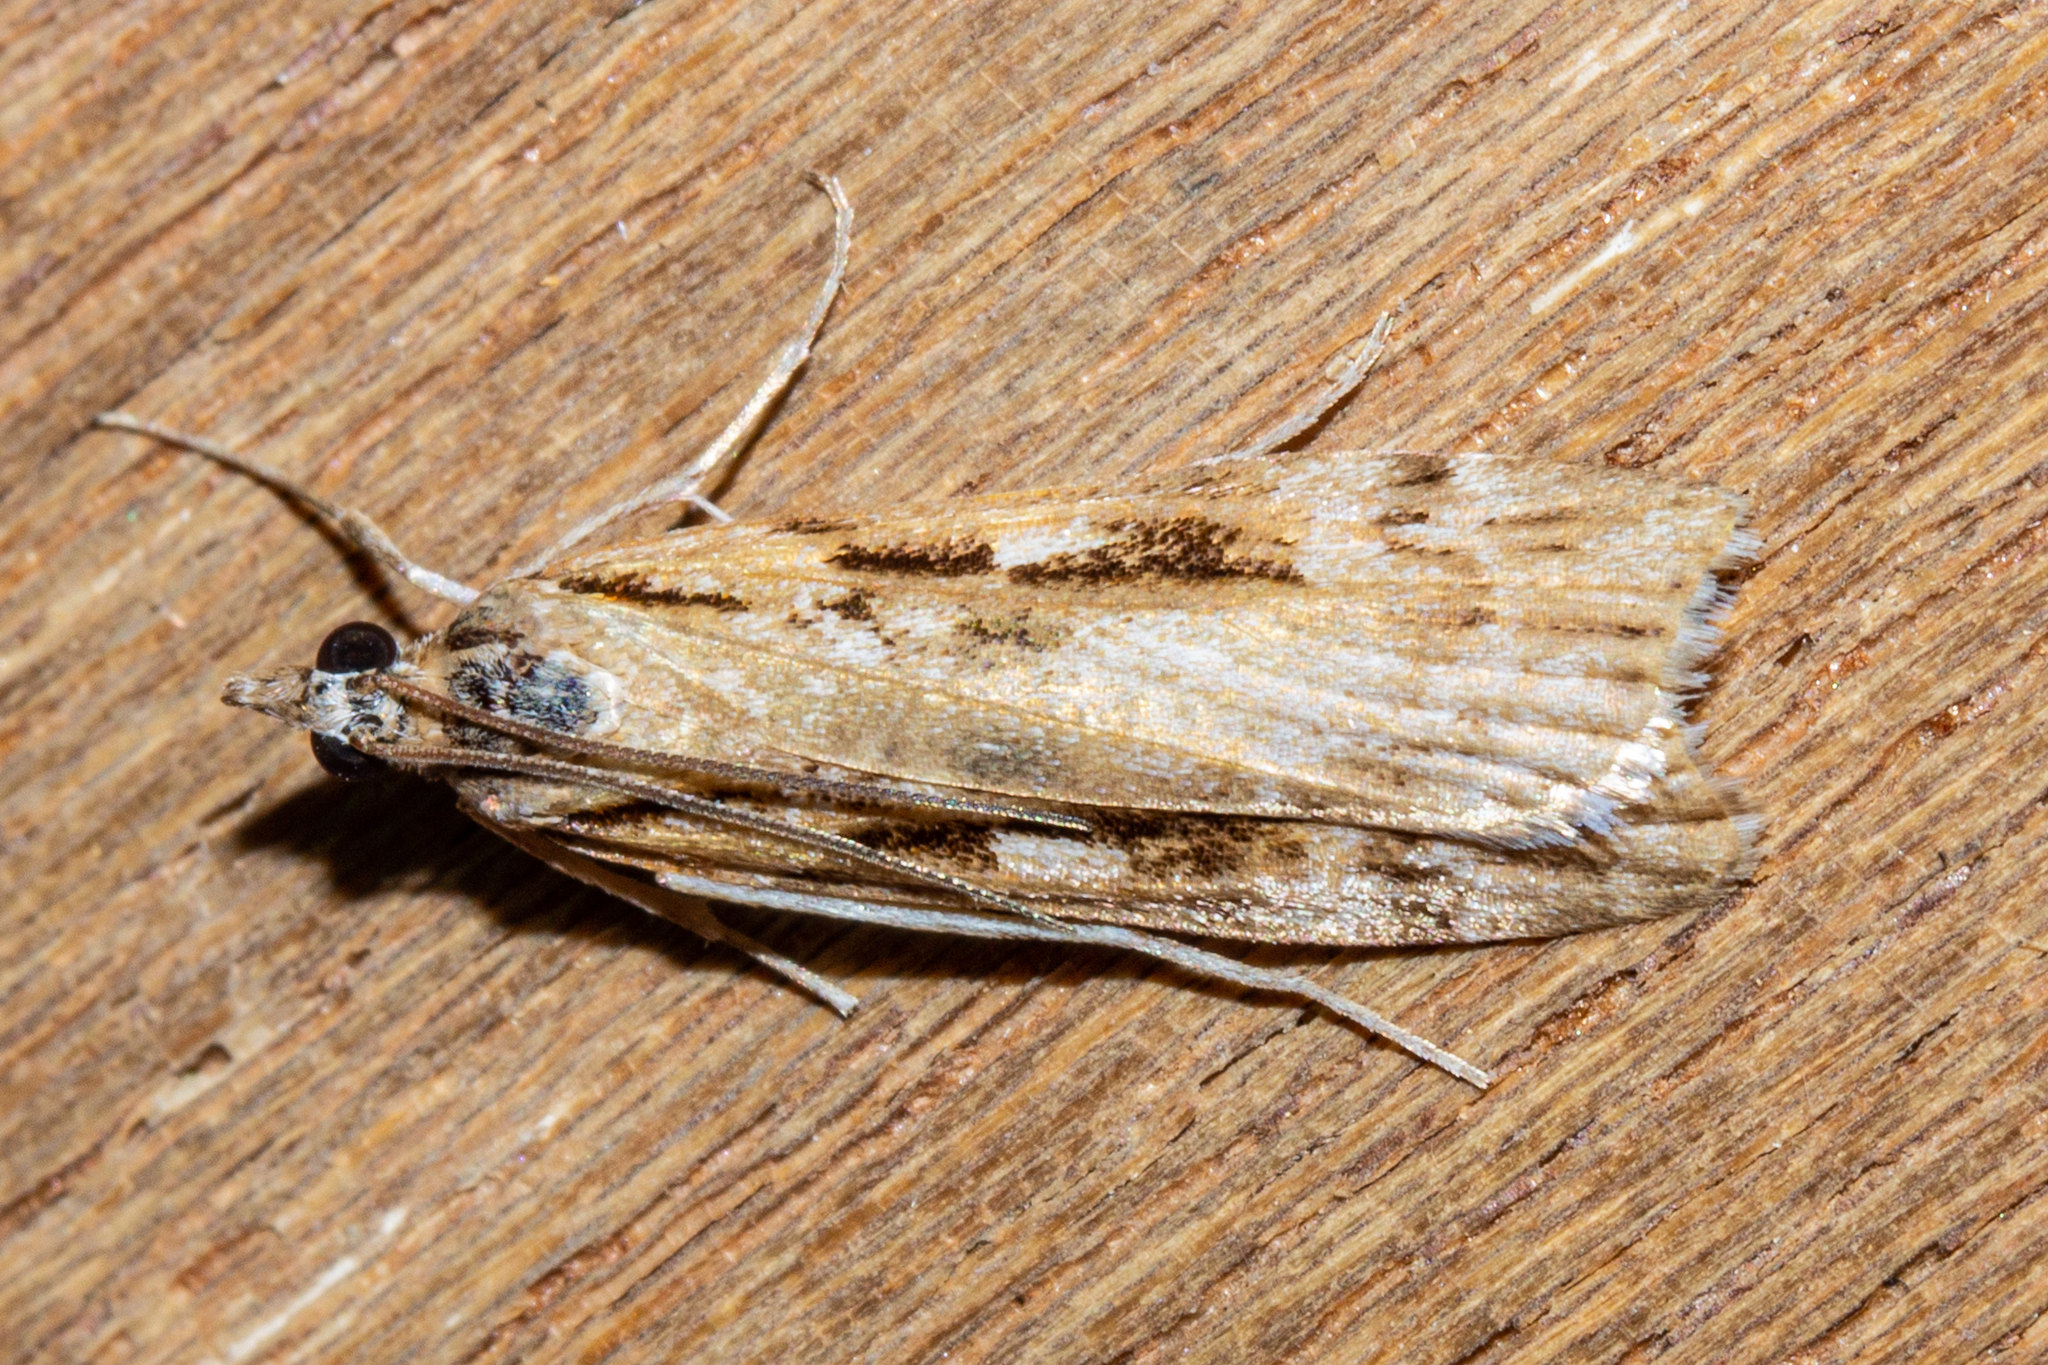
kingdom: Animalia
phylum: Arthropoda
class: Insecta
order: Lepidoptera
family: Crambidae
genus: Scoparia
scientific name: Scoparia cyameuta
